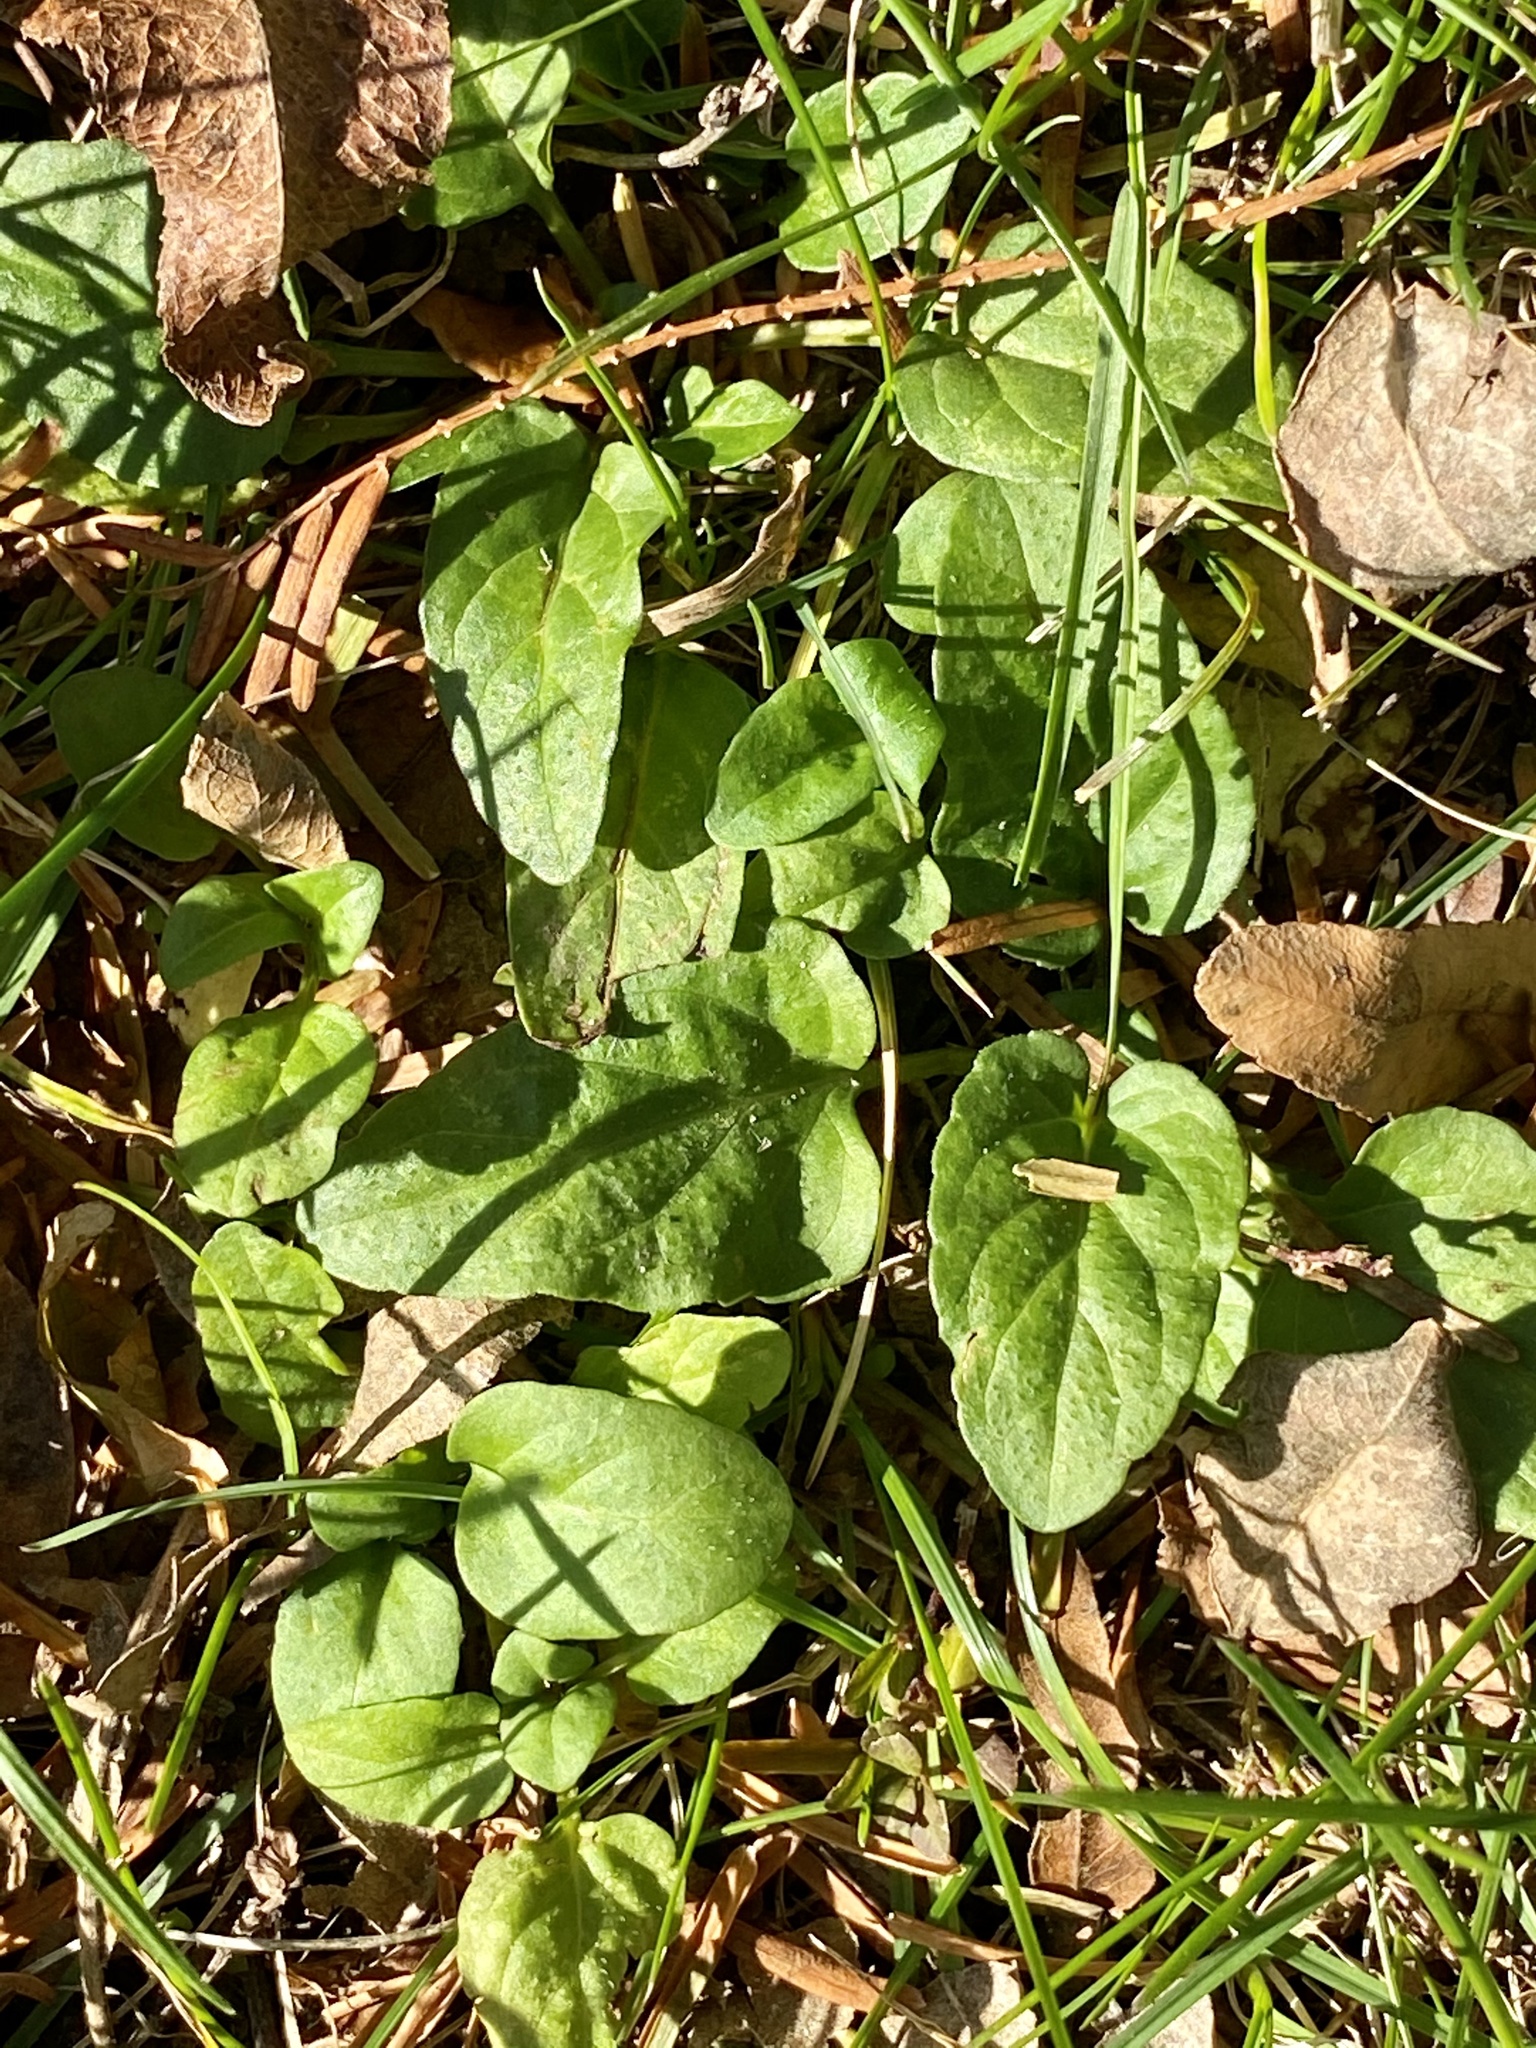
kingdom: Plantae
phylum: Tracheophyta
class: Magnoliopsida
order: Lamiales
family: Lamiaceae
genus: Prunella
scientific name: Prunella vulgaris
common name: Heal-all
